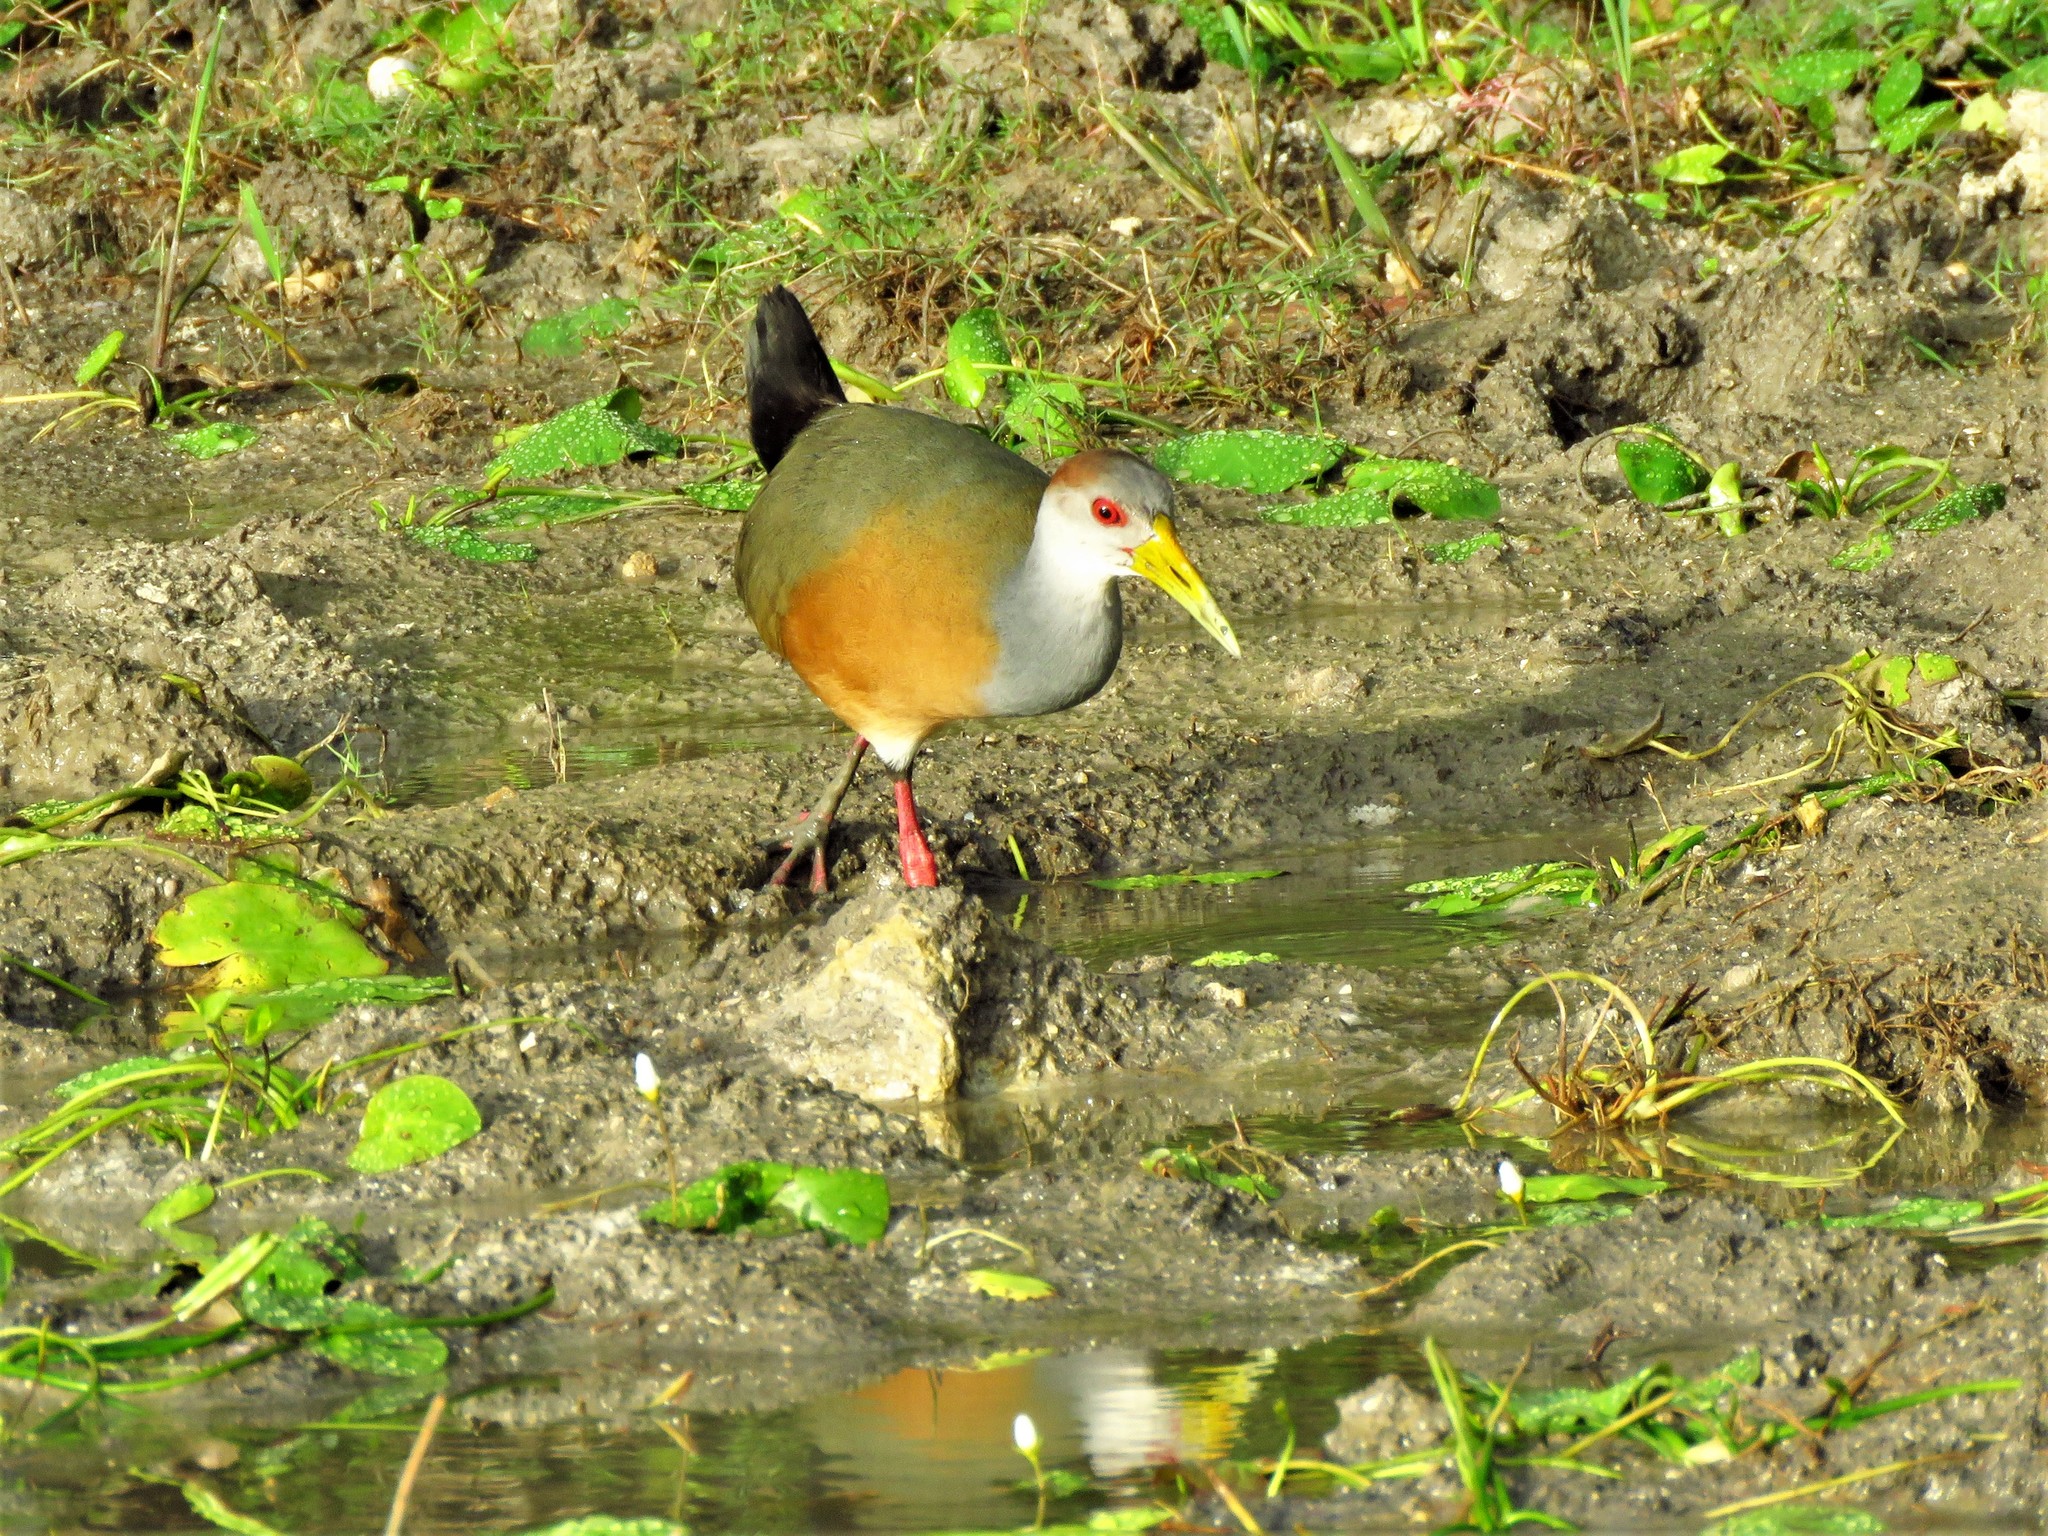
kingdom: Animalia
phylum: Chordata
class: Aves
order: Gruiformes
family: Rallidae
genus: Aramides
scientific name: Aramides albiventris
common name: Russet-naped wood-rail
